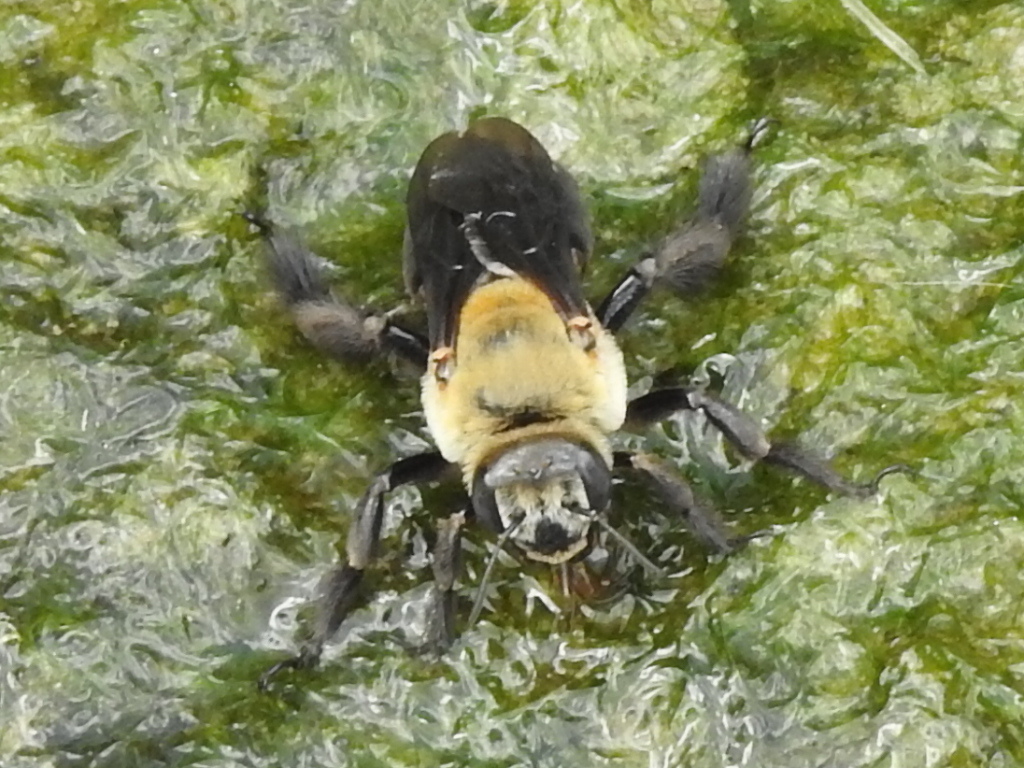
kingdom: Animalia
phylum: Arthropoda
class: Insecta
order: Hymenoptera
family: Apidae
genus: Ptilothrix
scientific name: Ptilothrix bombiformis
